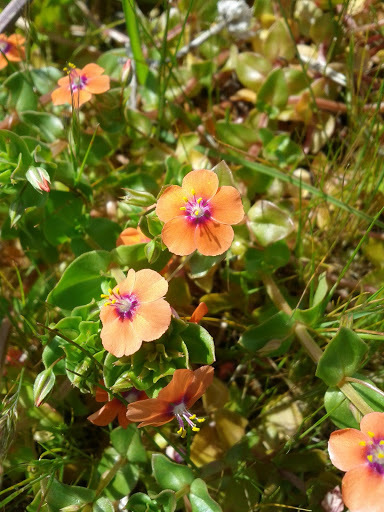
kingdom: Plantae
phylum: Tracheophyta
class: Magnoliopsida
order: Ericales
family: Primulaceae
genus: Lysimachia
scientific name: Lysimachia arvensis
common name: Scarlet pimpernel
